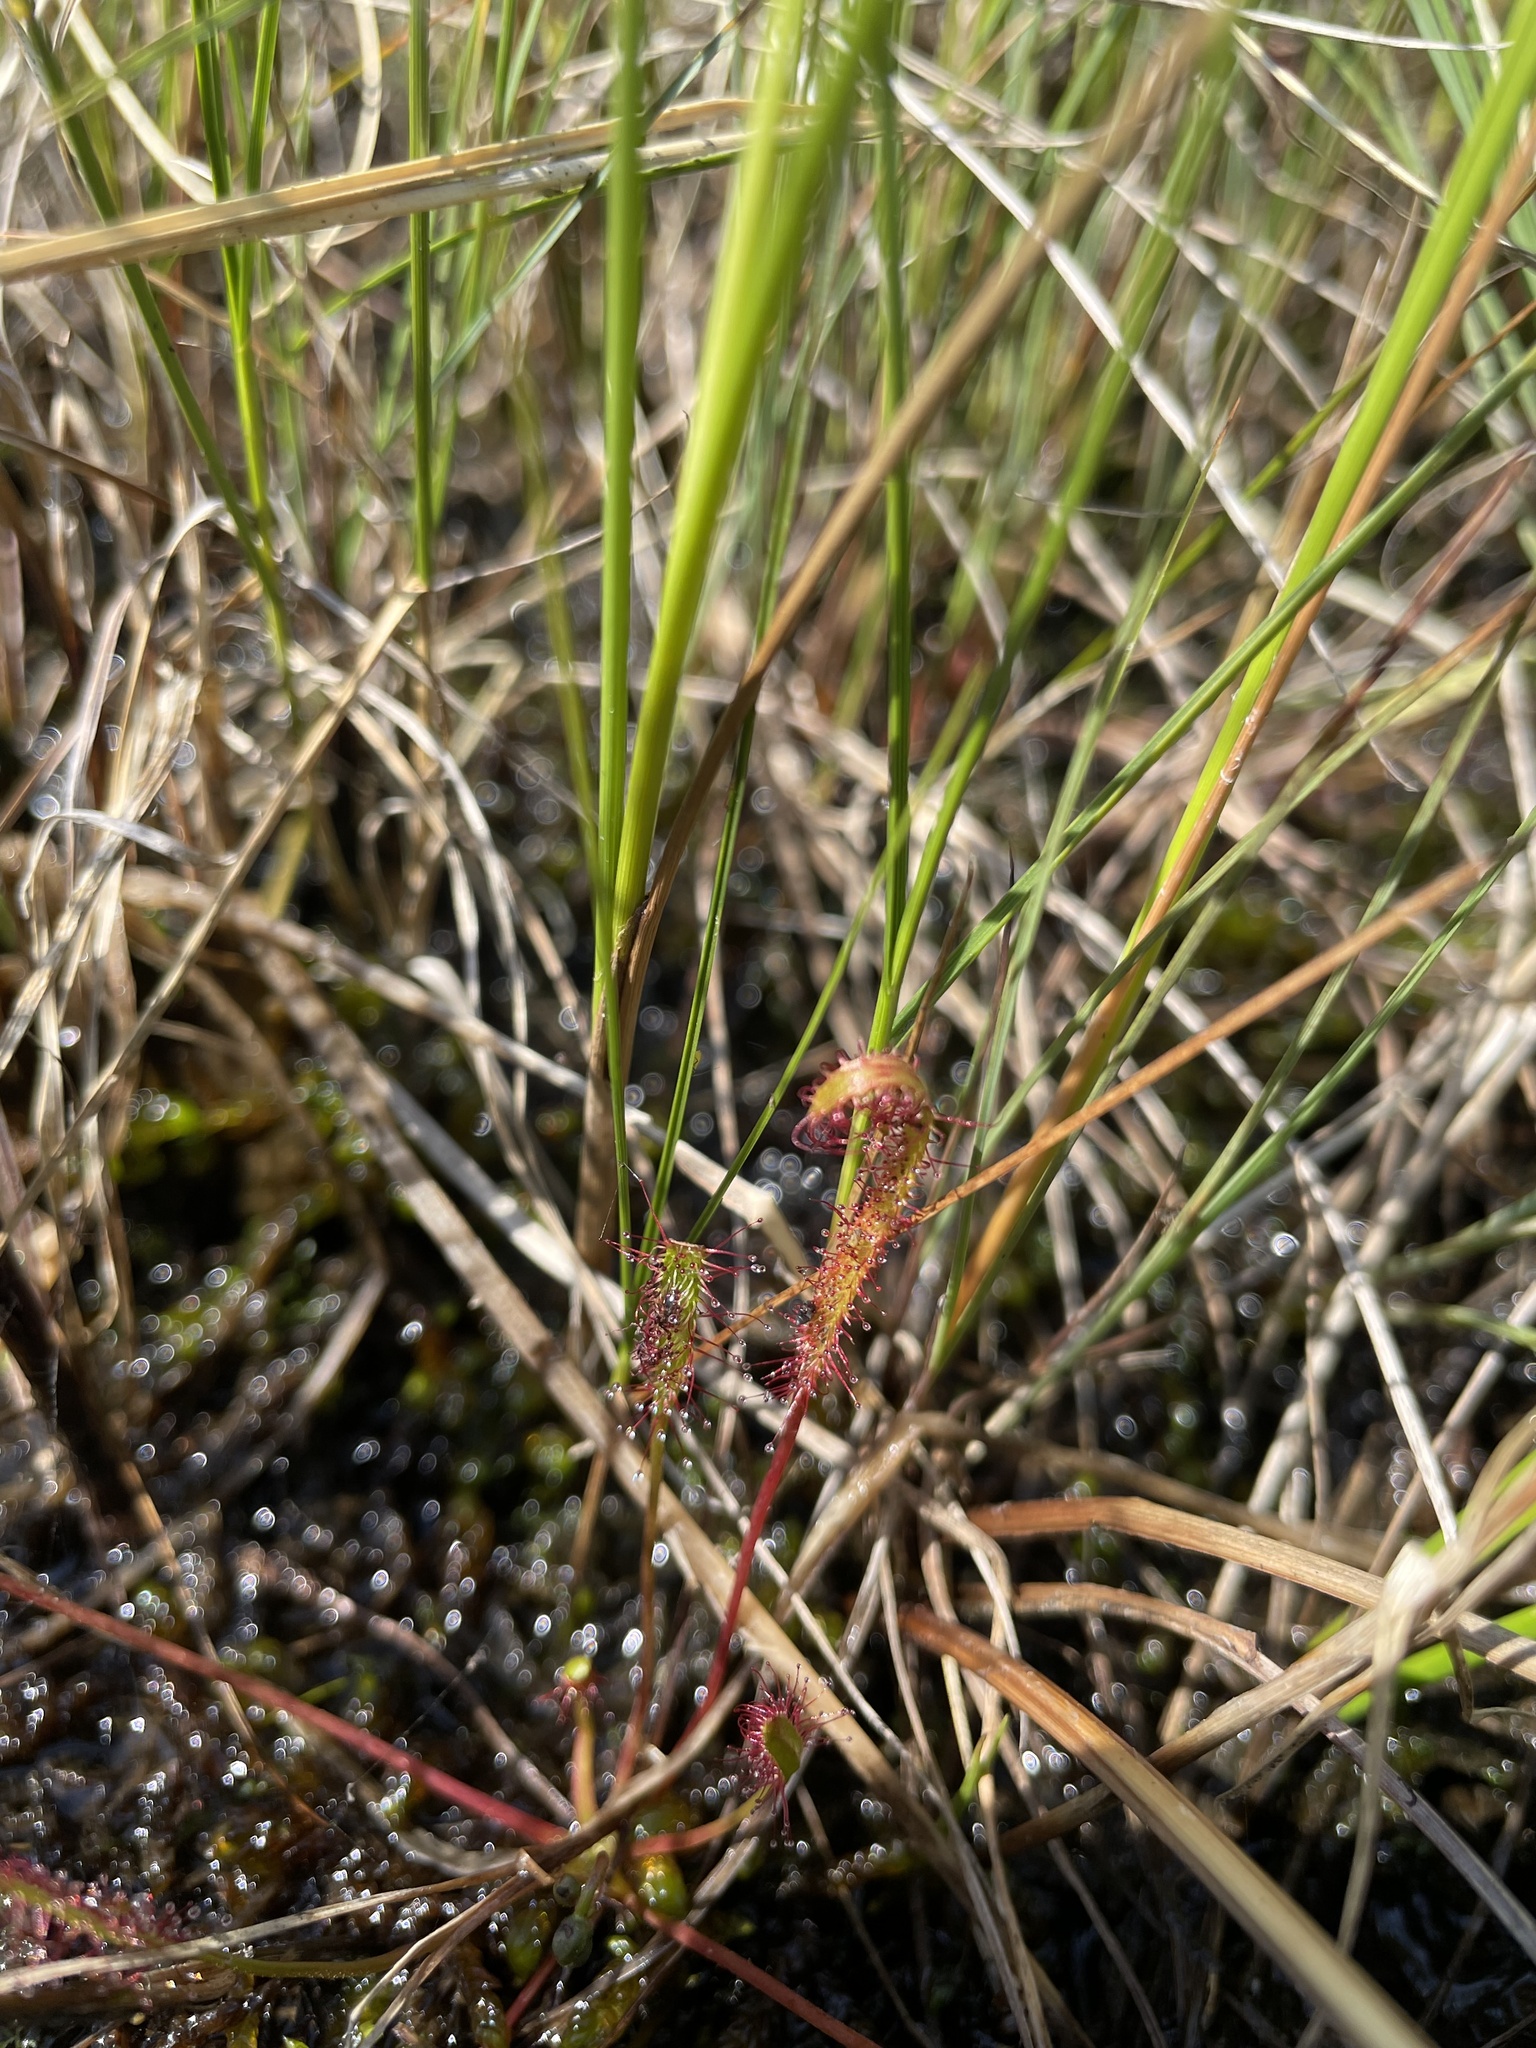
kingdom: Plantae
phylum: Tracheophyta
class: Magnoliopsida
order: Caryophyllales
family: Droseraceae
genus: Drosera
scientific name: Drosera linearis
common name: Linear-leaved sundew
